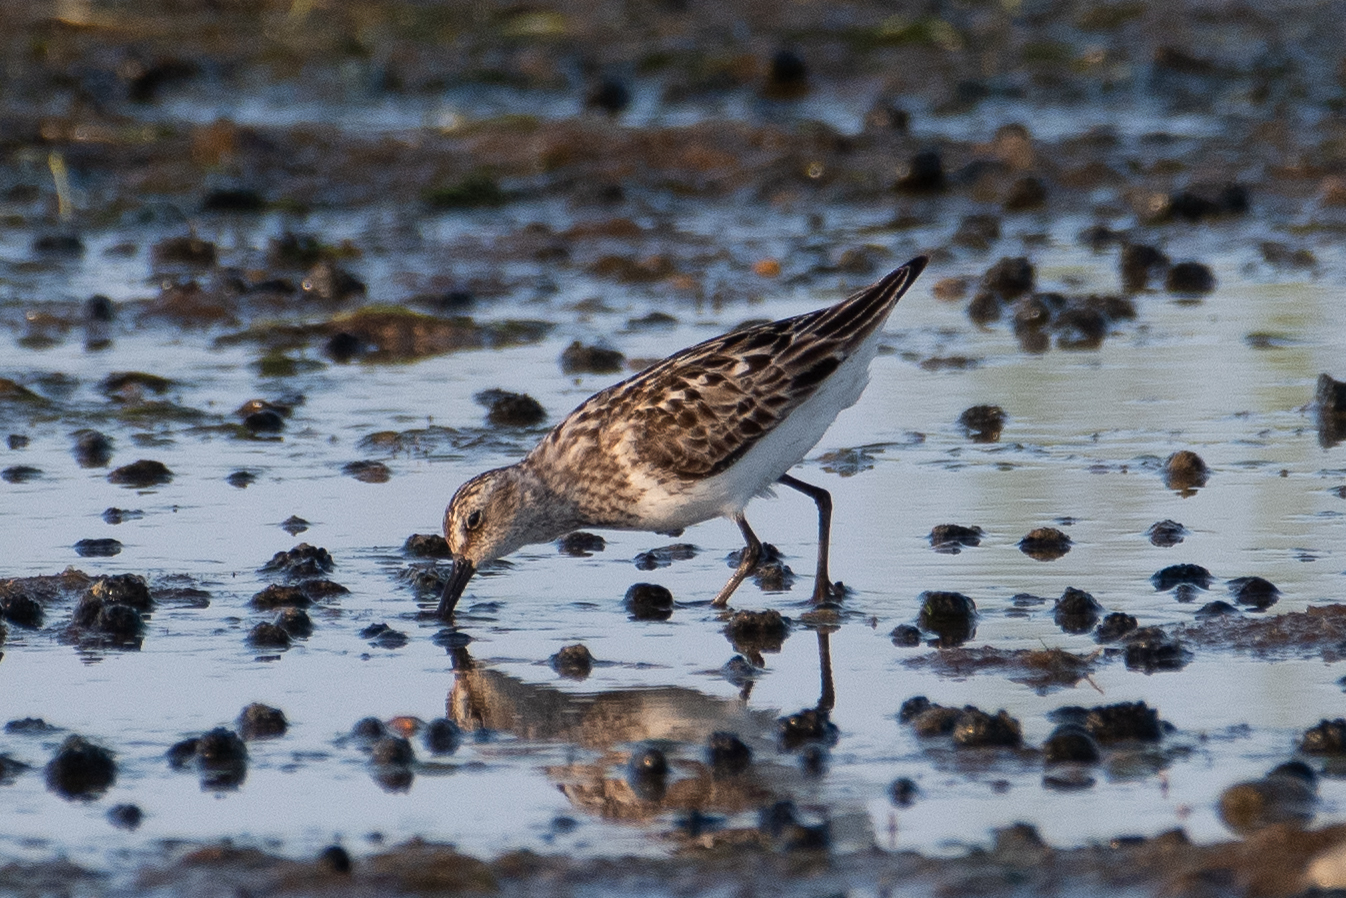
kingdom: Animalia
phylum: Chordata
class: Aves
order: Charadriiformes
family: Scolopacidae
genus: Calidris
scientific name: Calidris pusilla
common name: Semipalmated sandpiper
